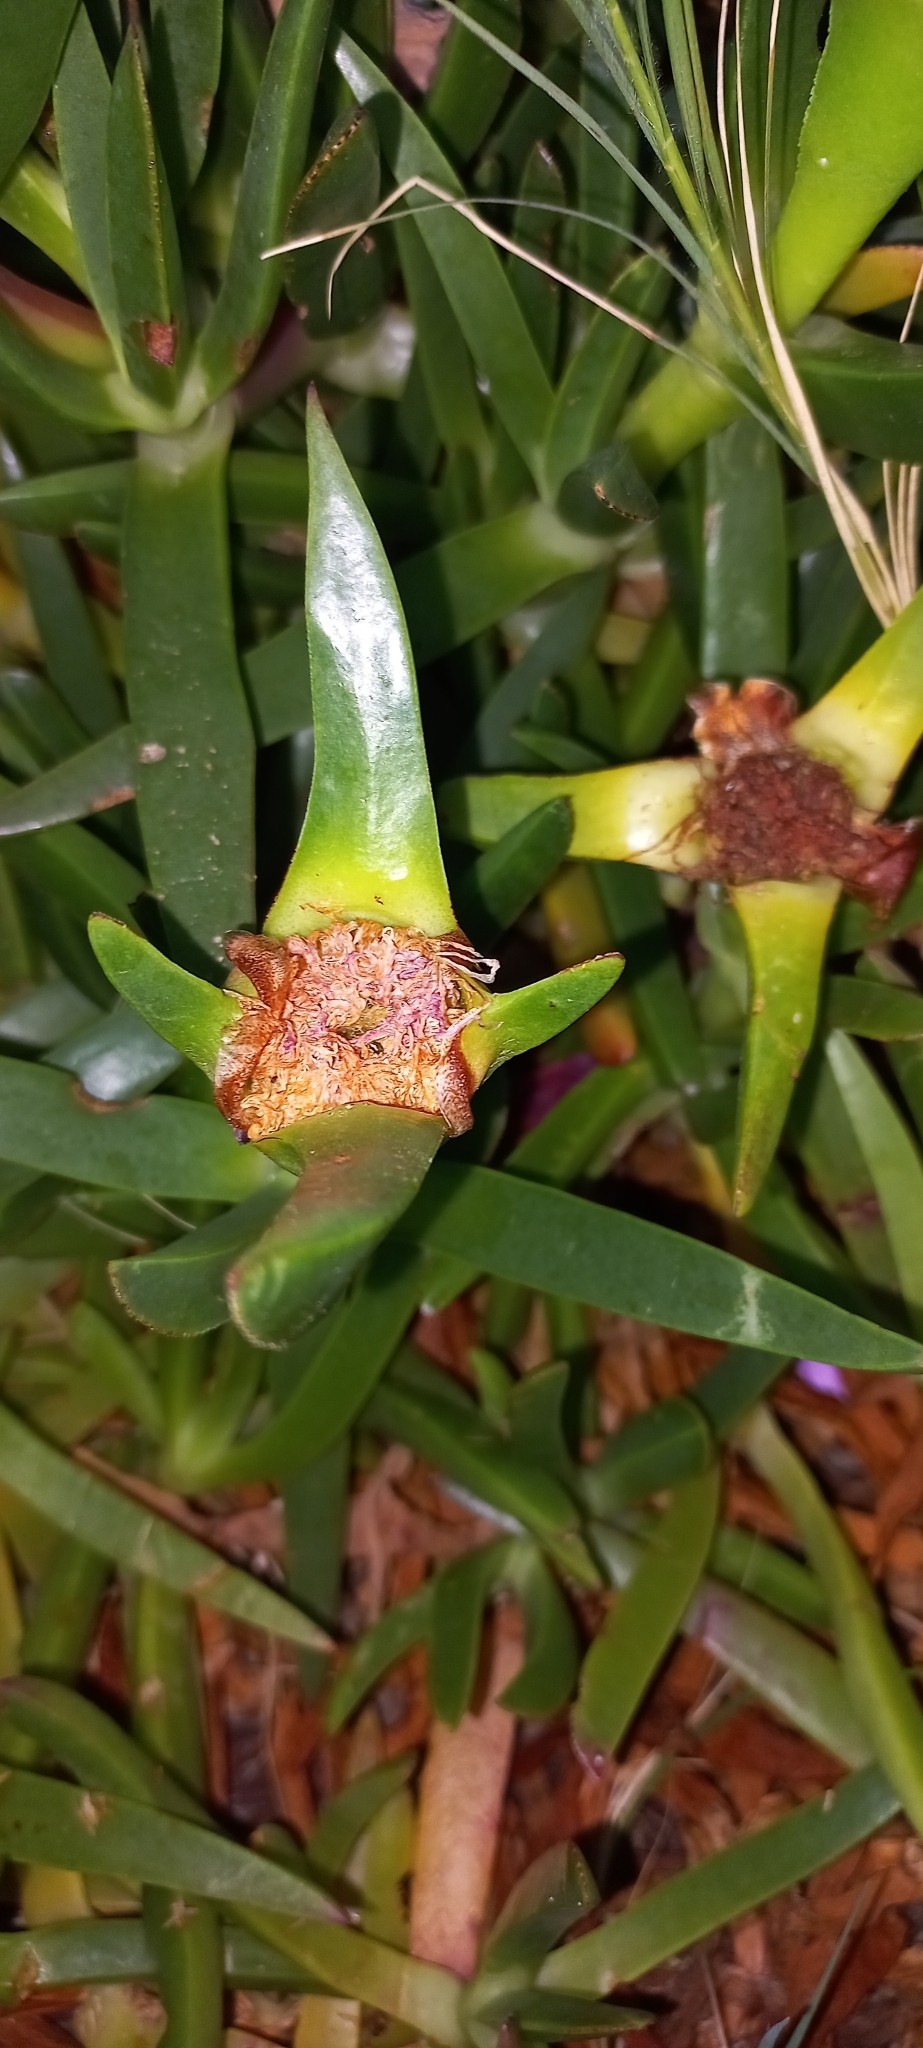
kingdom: Plantae
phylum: Tracheophyta
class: Magnoliopsida
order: Caryophyllales
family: Aizoaceae
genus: Carpobrotus
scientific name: Carpobrotus edulis
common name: Hottentot-fig
